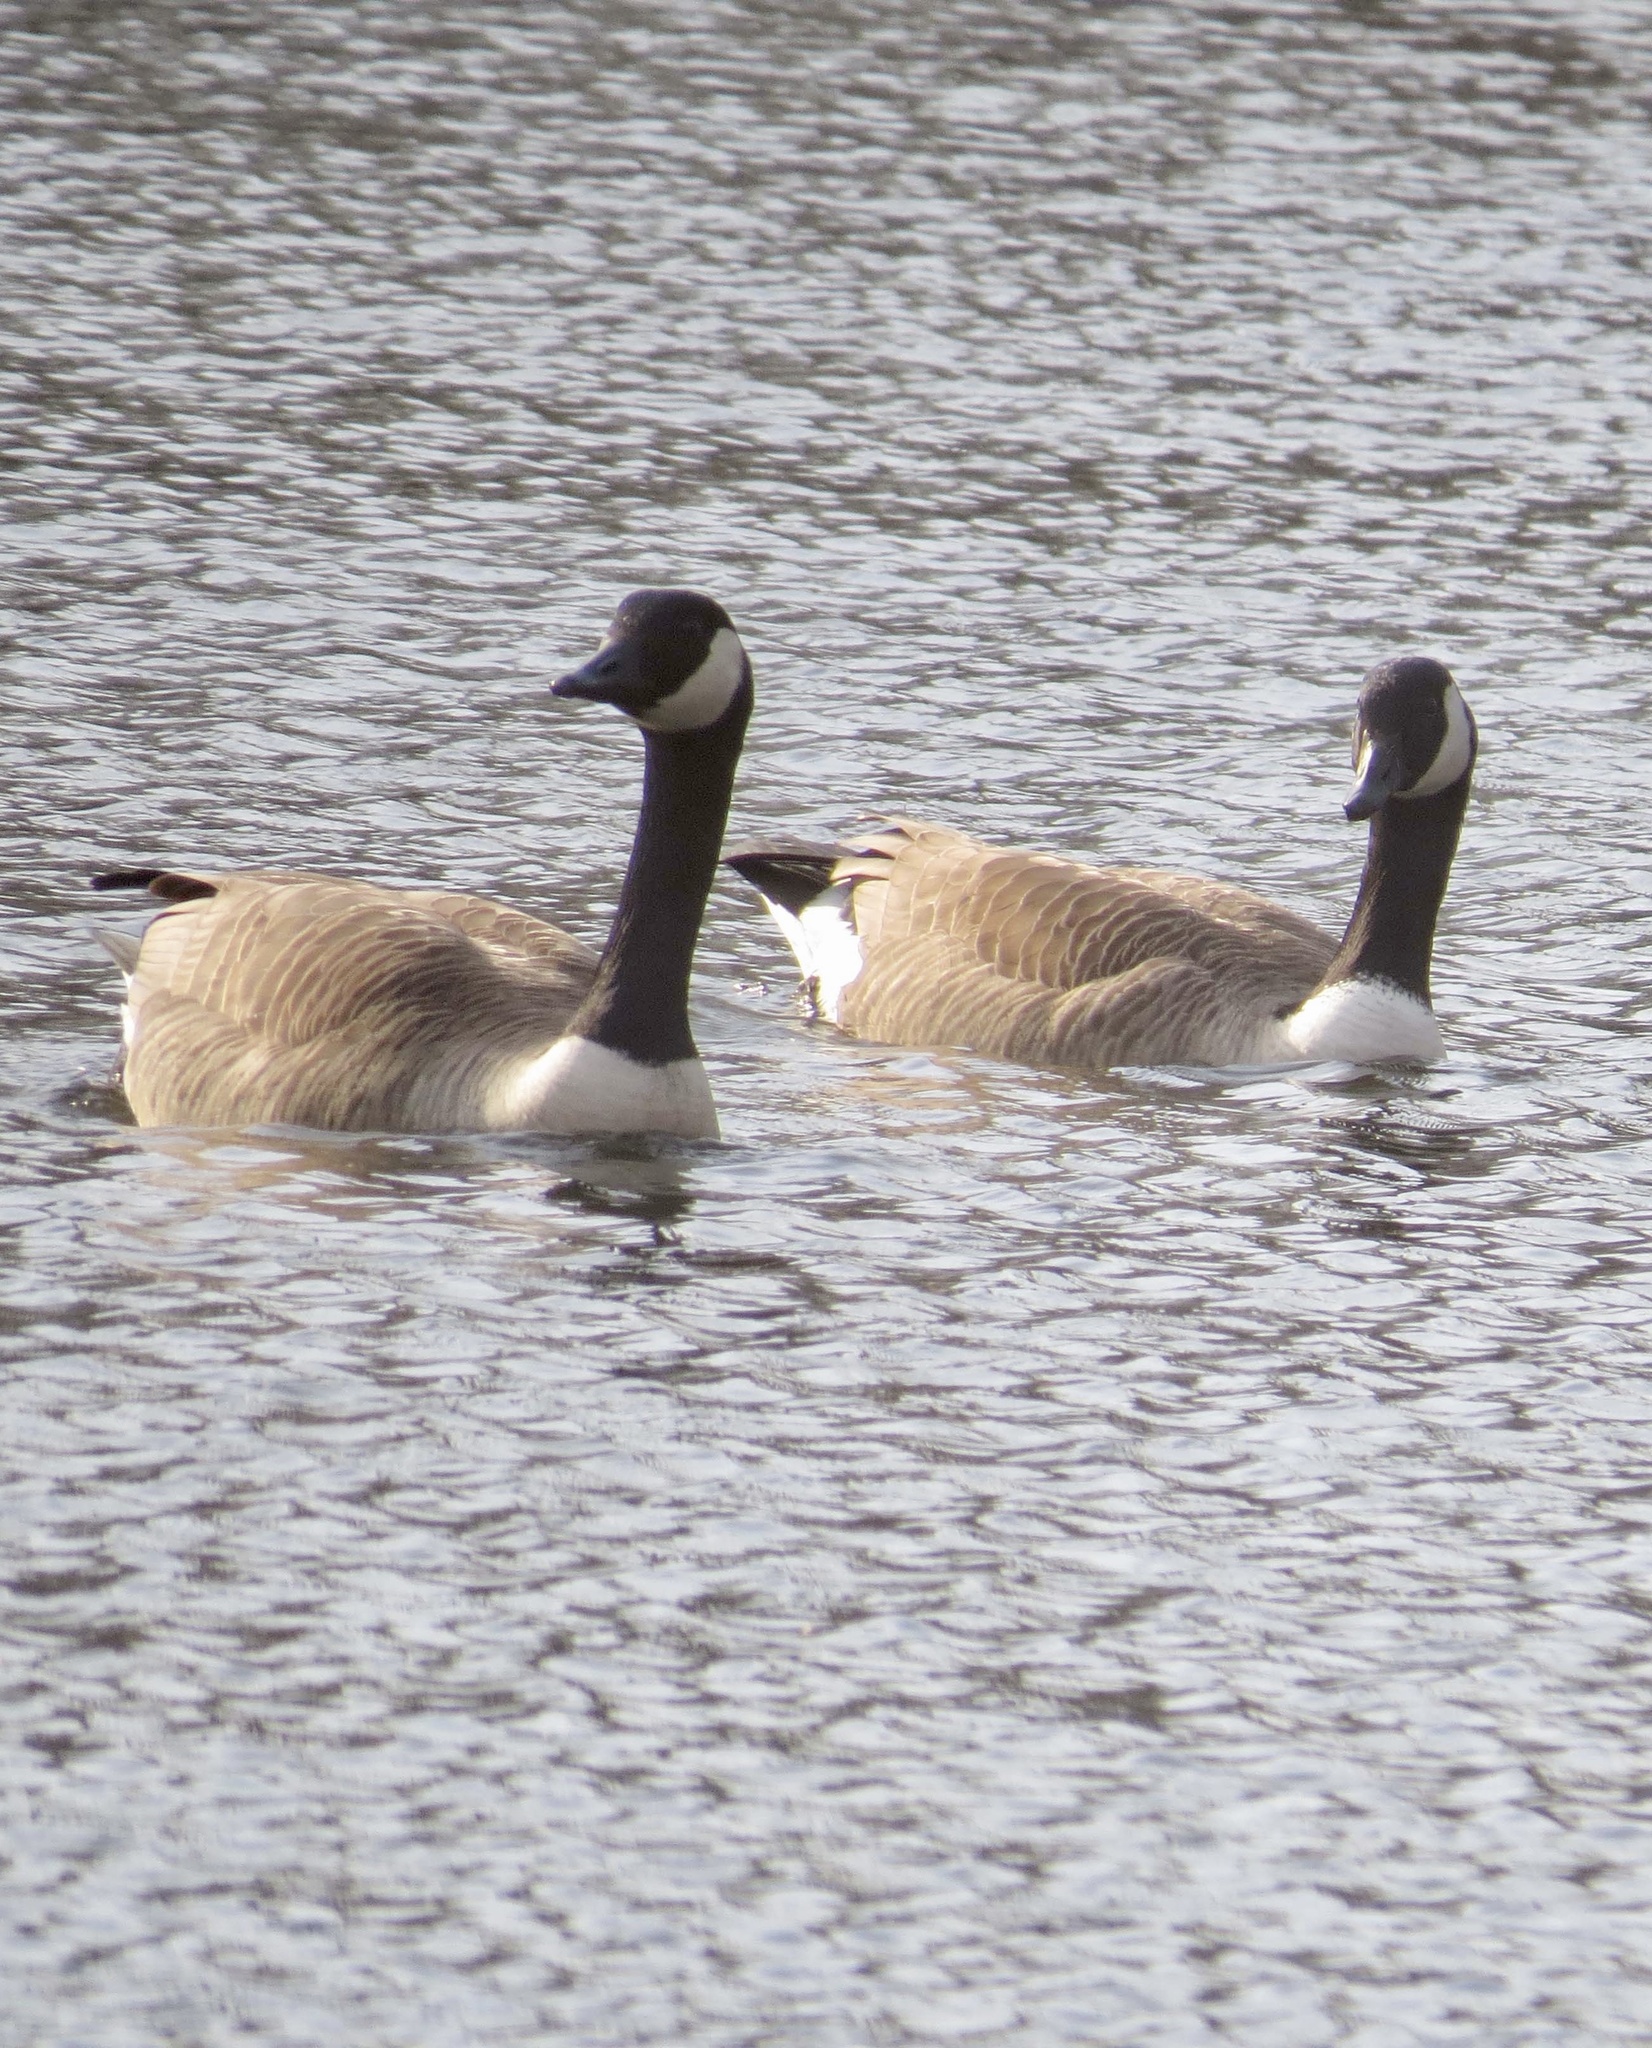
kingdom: Animalia
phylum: Chordata
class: Aves
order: Anseriformes
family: Anatidae
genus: Branta
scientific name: Branta canadensis
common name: Canada goose
